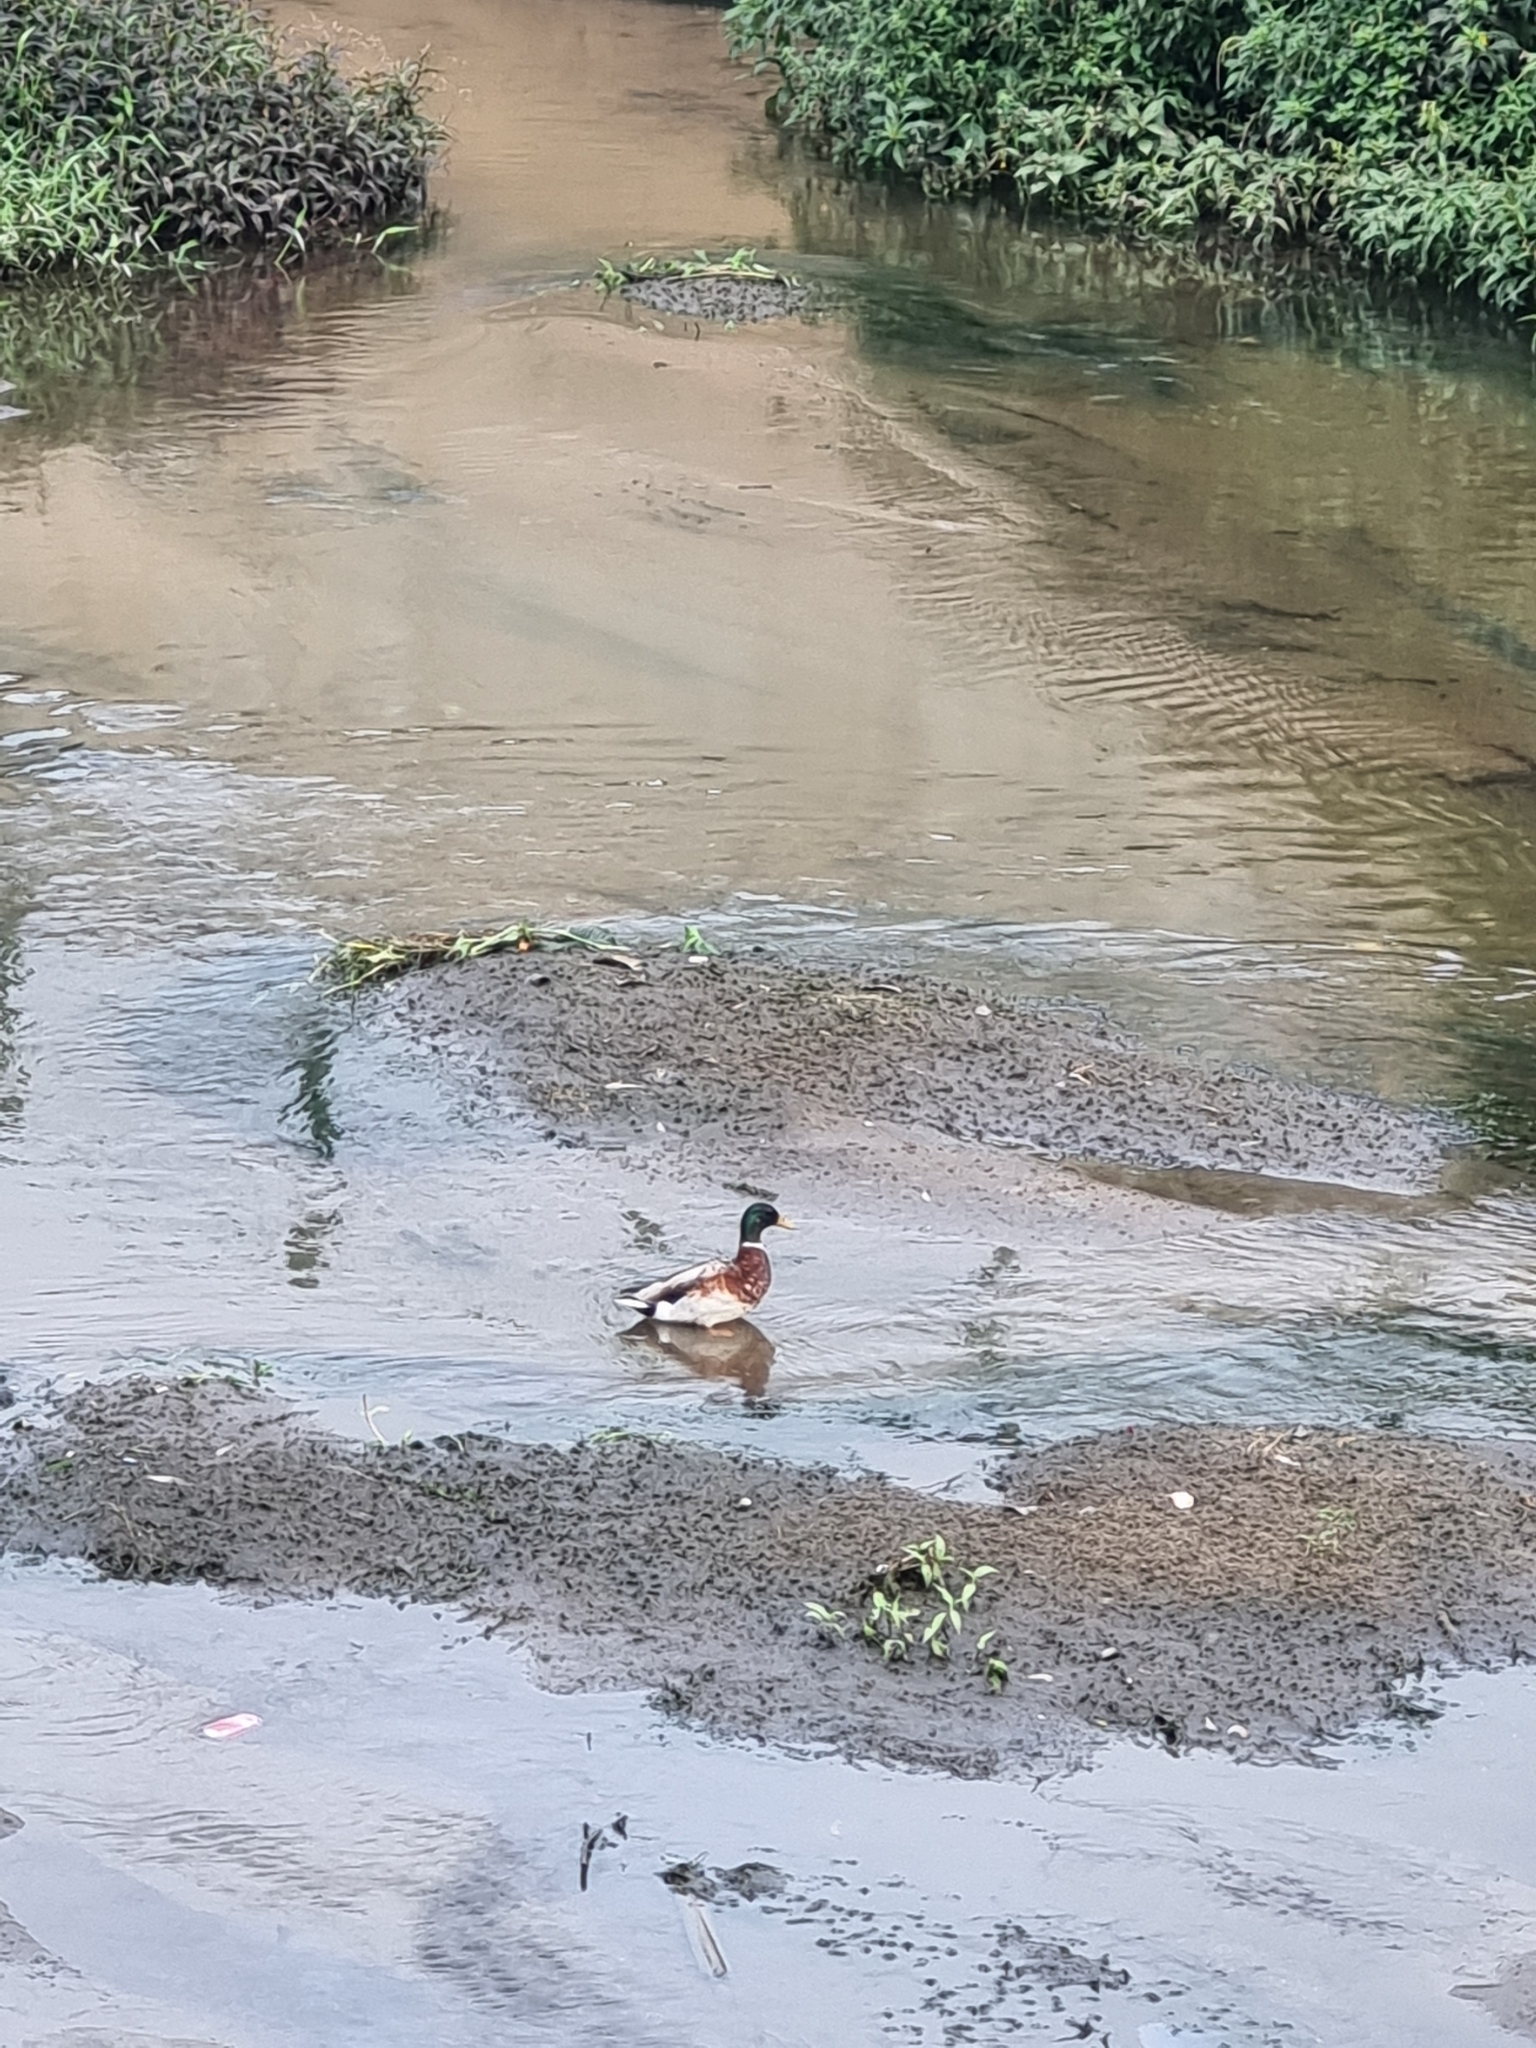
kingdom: Animalia
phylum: Chordata
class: Aves
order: Anseriformes
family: Anatidae
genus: Anas
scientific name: Anas platyrhynchos
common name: Mallard
